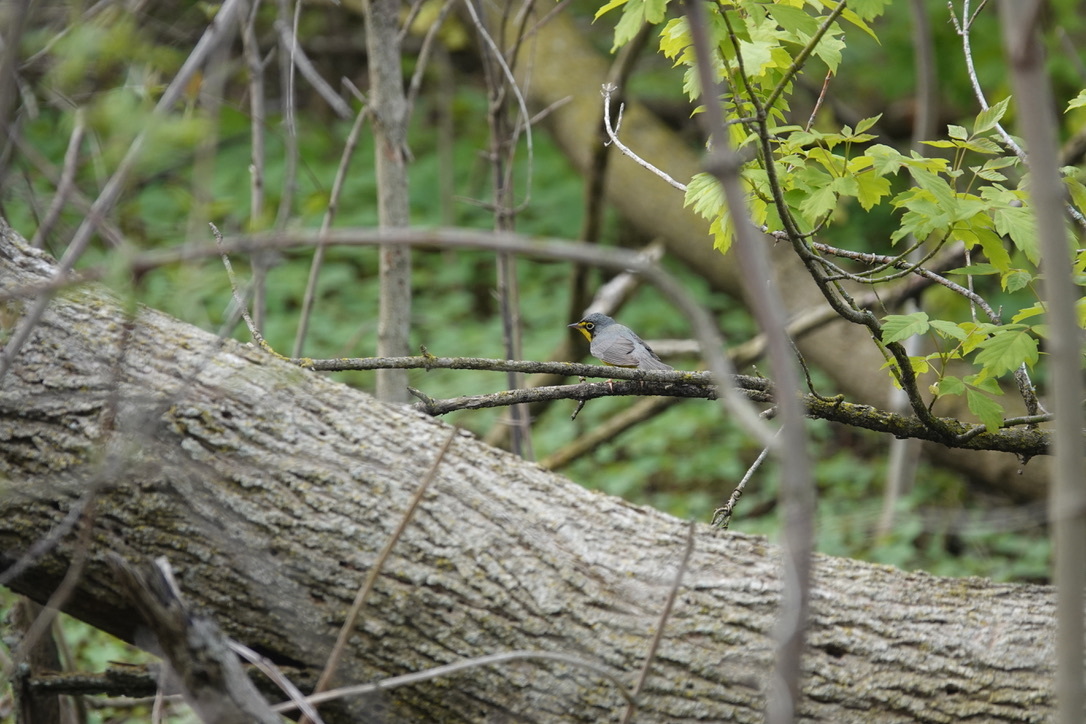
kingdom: Animalia
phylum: Chordata
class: Aves
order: Passeriformes
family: Parulidae
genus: Cardellina
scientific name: Cardellina canadensis
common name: Canada warbler
